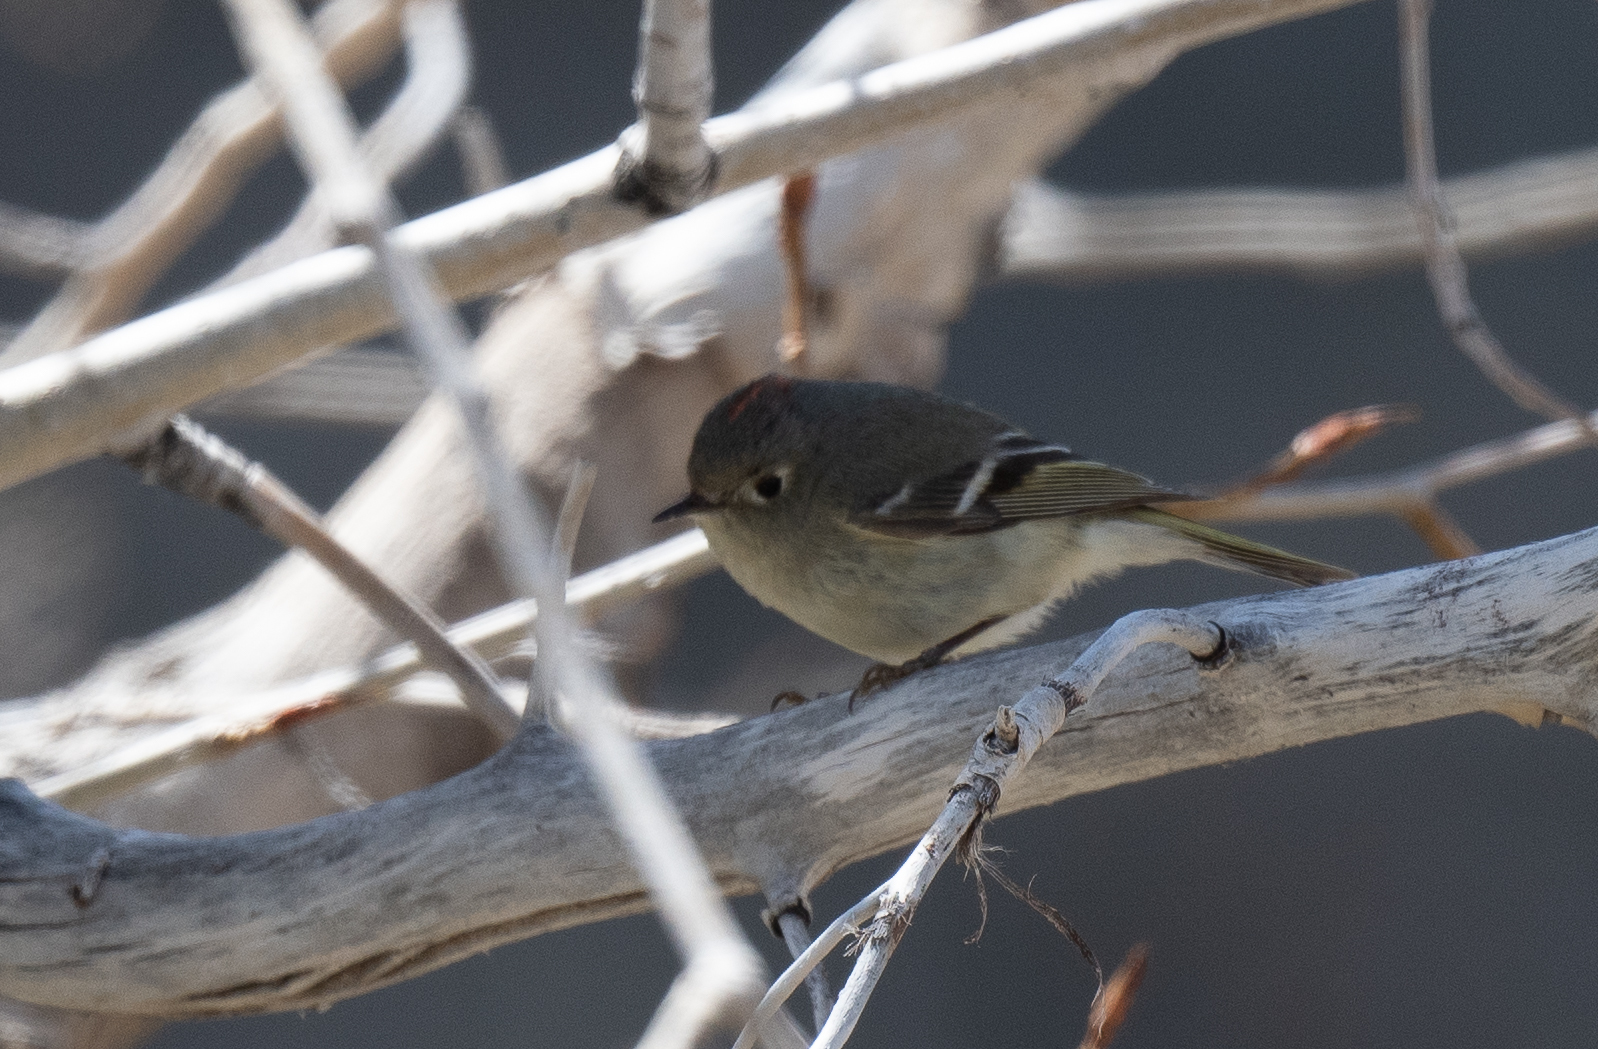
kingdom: Animalia
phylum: Chordata
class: Aves
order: Passeriformes
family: Regulidae
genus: Regulus
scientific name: Regulus calendula
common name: Ruby-crowned kinglet
